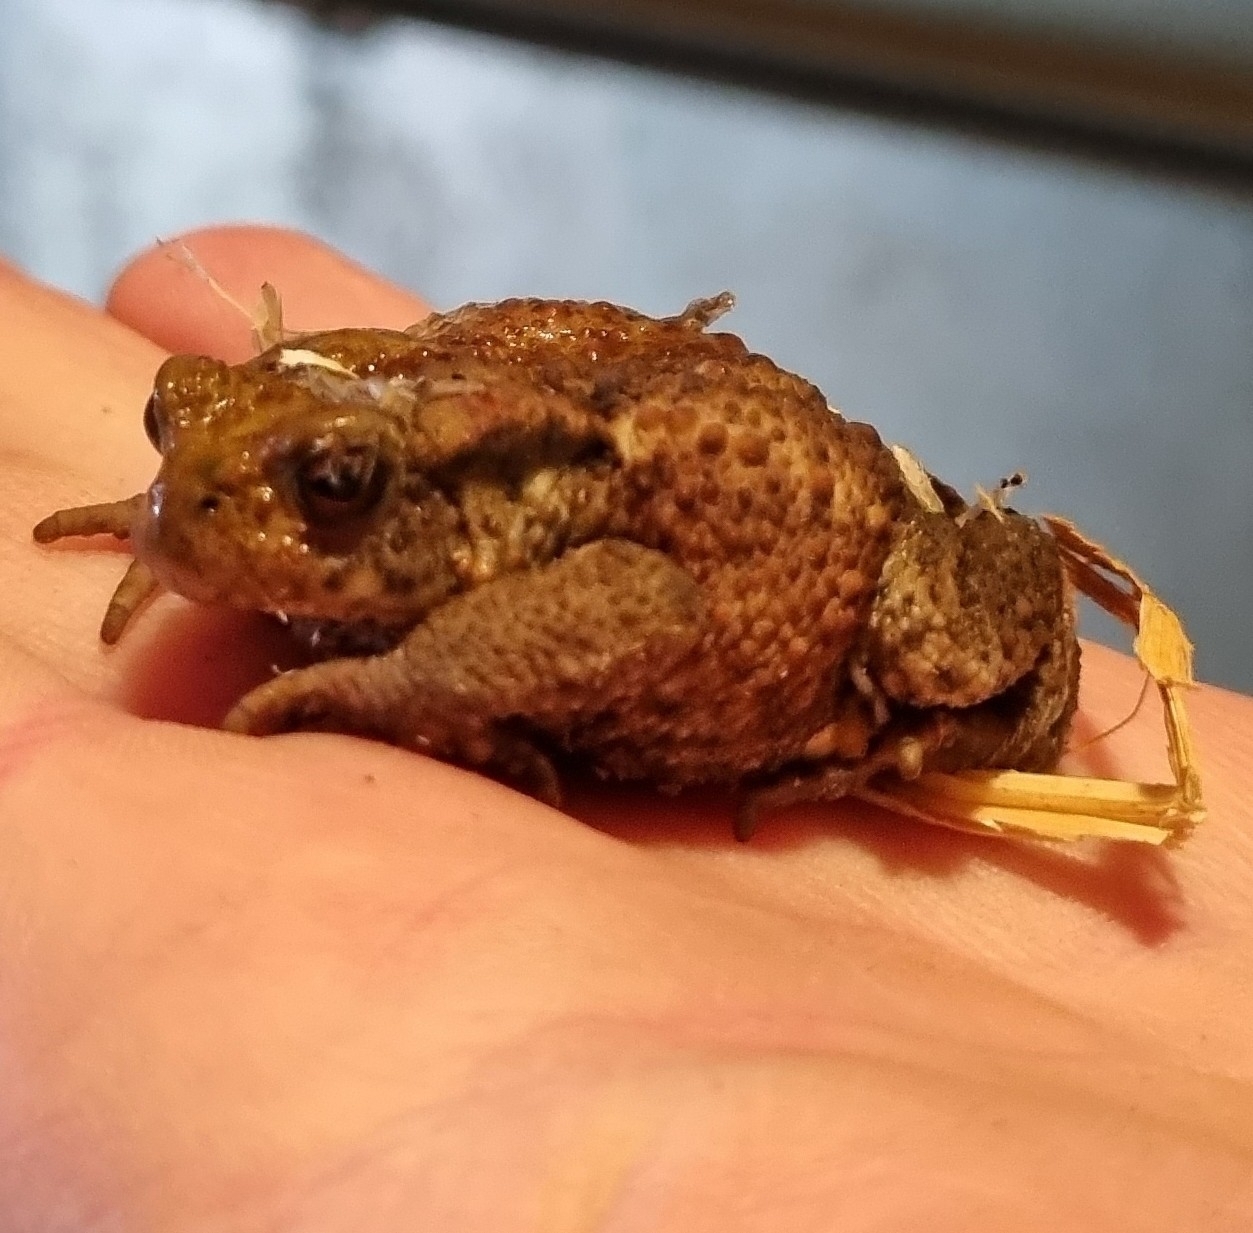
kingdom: Animalia
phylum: Chordata
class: Amphibia
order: Anura
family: Bufonidae
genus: Bufo
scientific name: Bufo bufo
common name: Common toad
